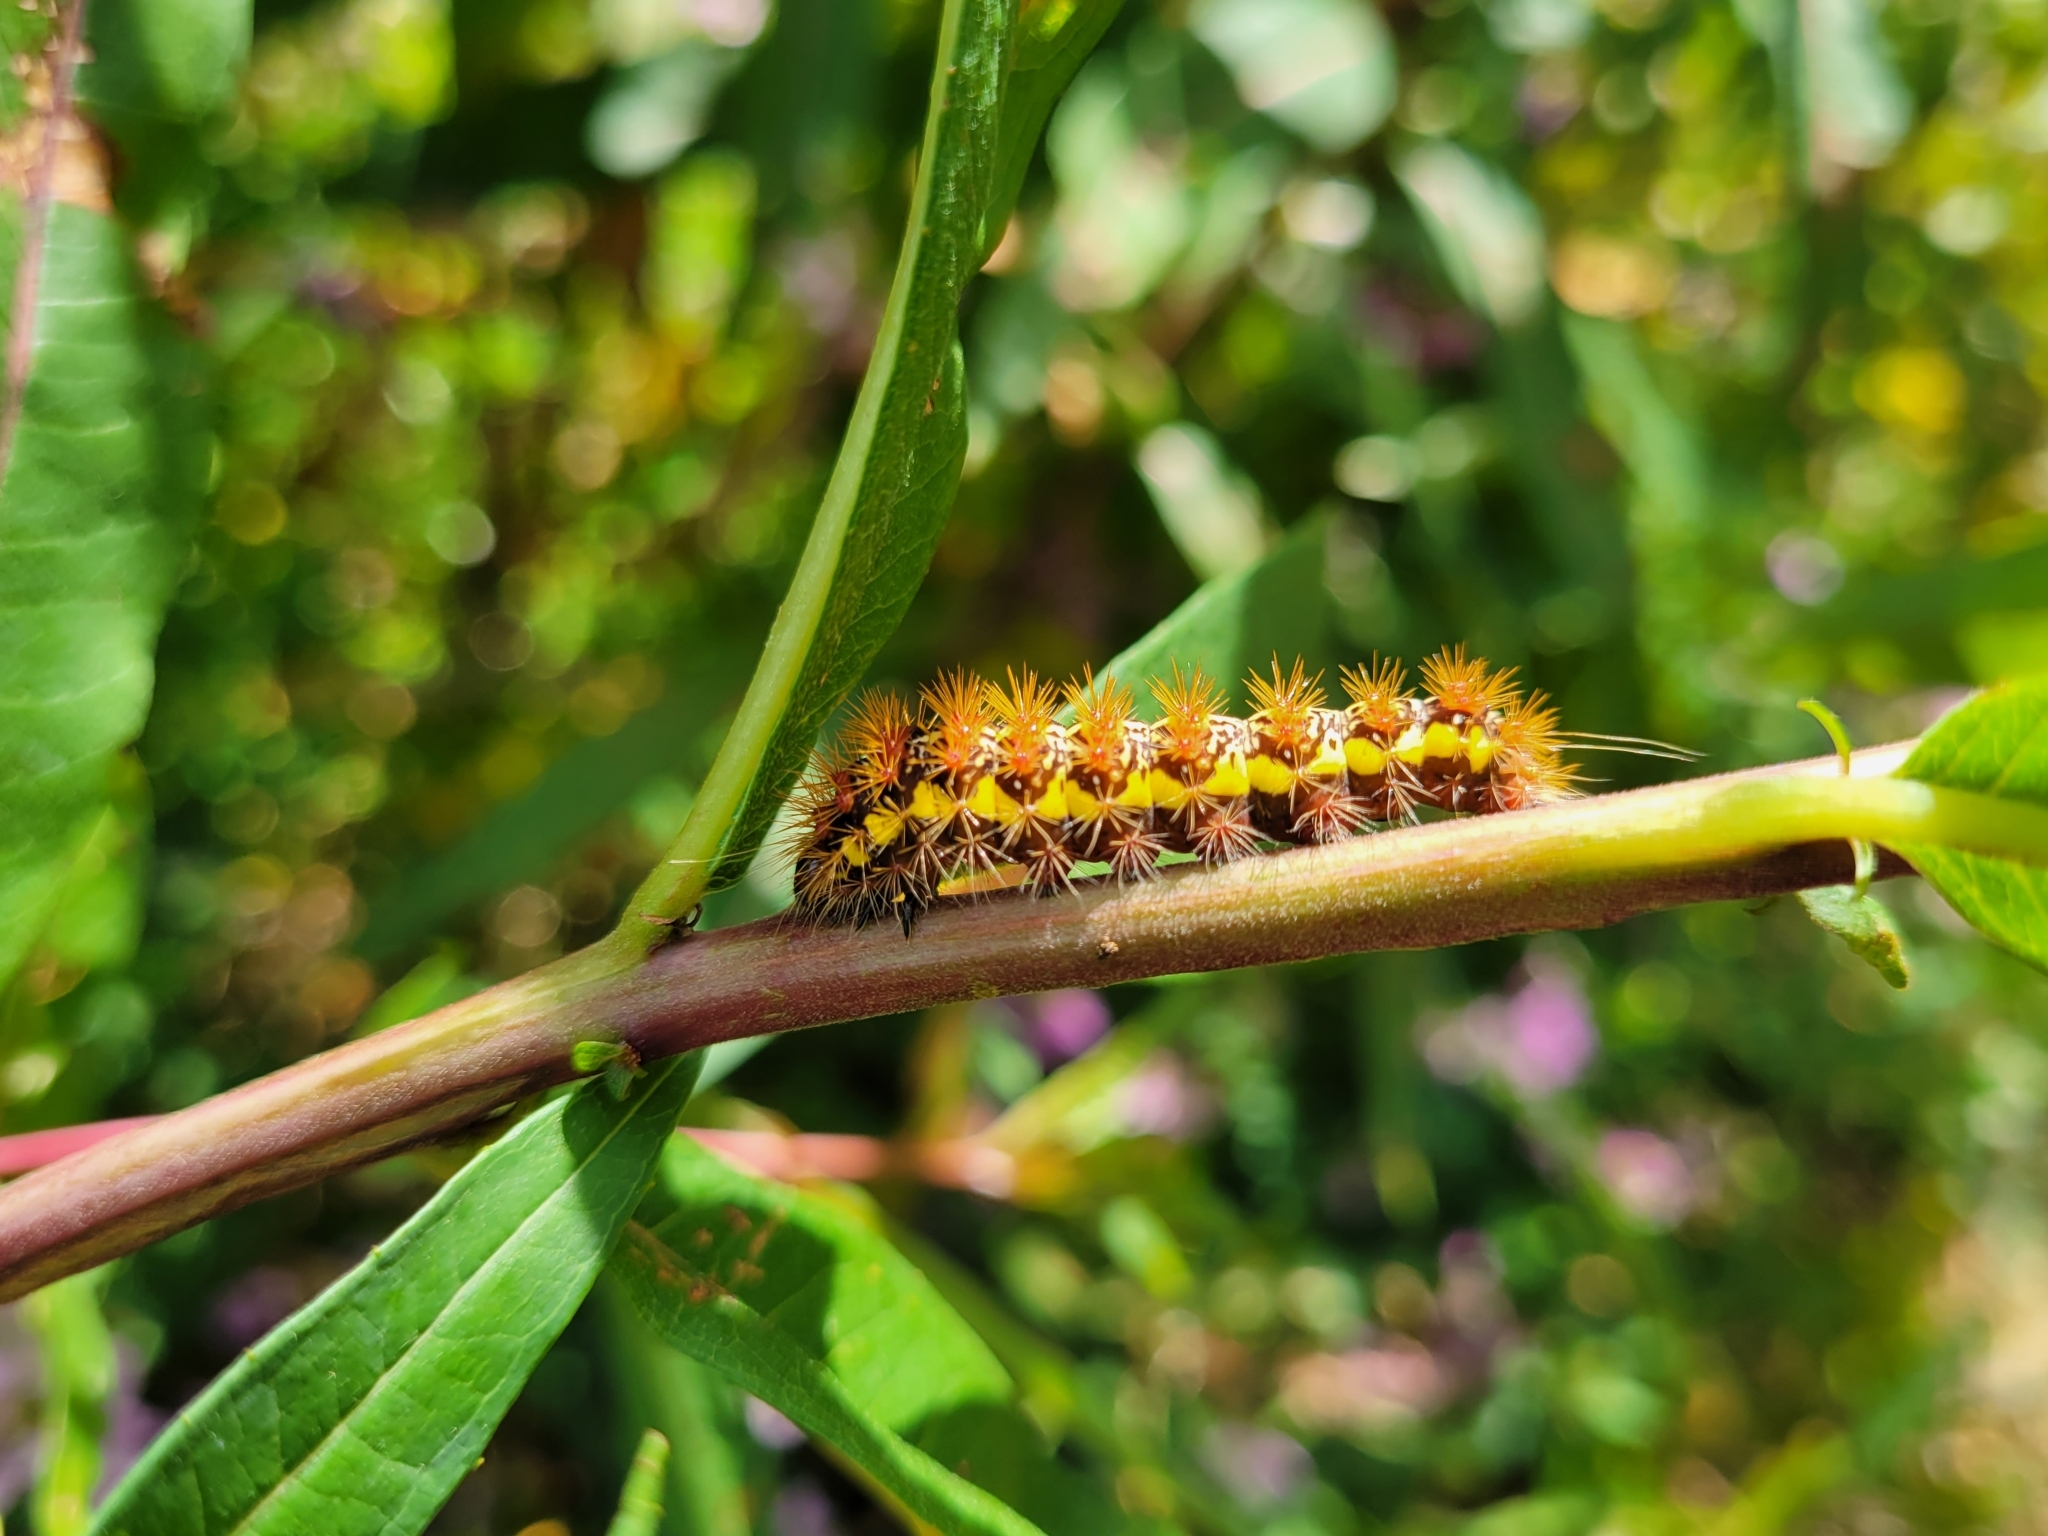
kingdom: Animalia
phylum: Arthropoda
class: Insecta
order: Lepidoptera
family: Noctuidae
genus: Acronicta
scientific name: Acronicta oblinita
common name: Smeared dagger
